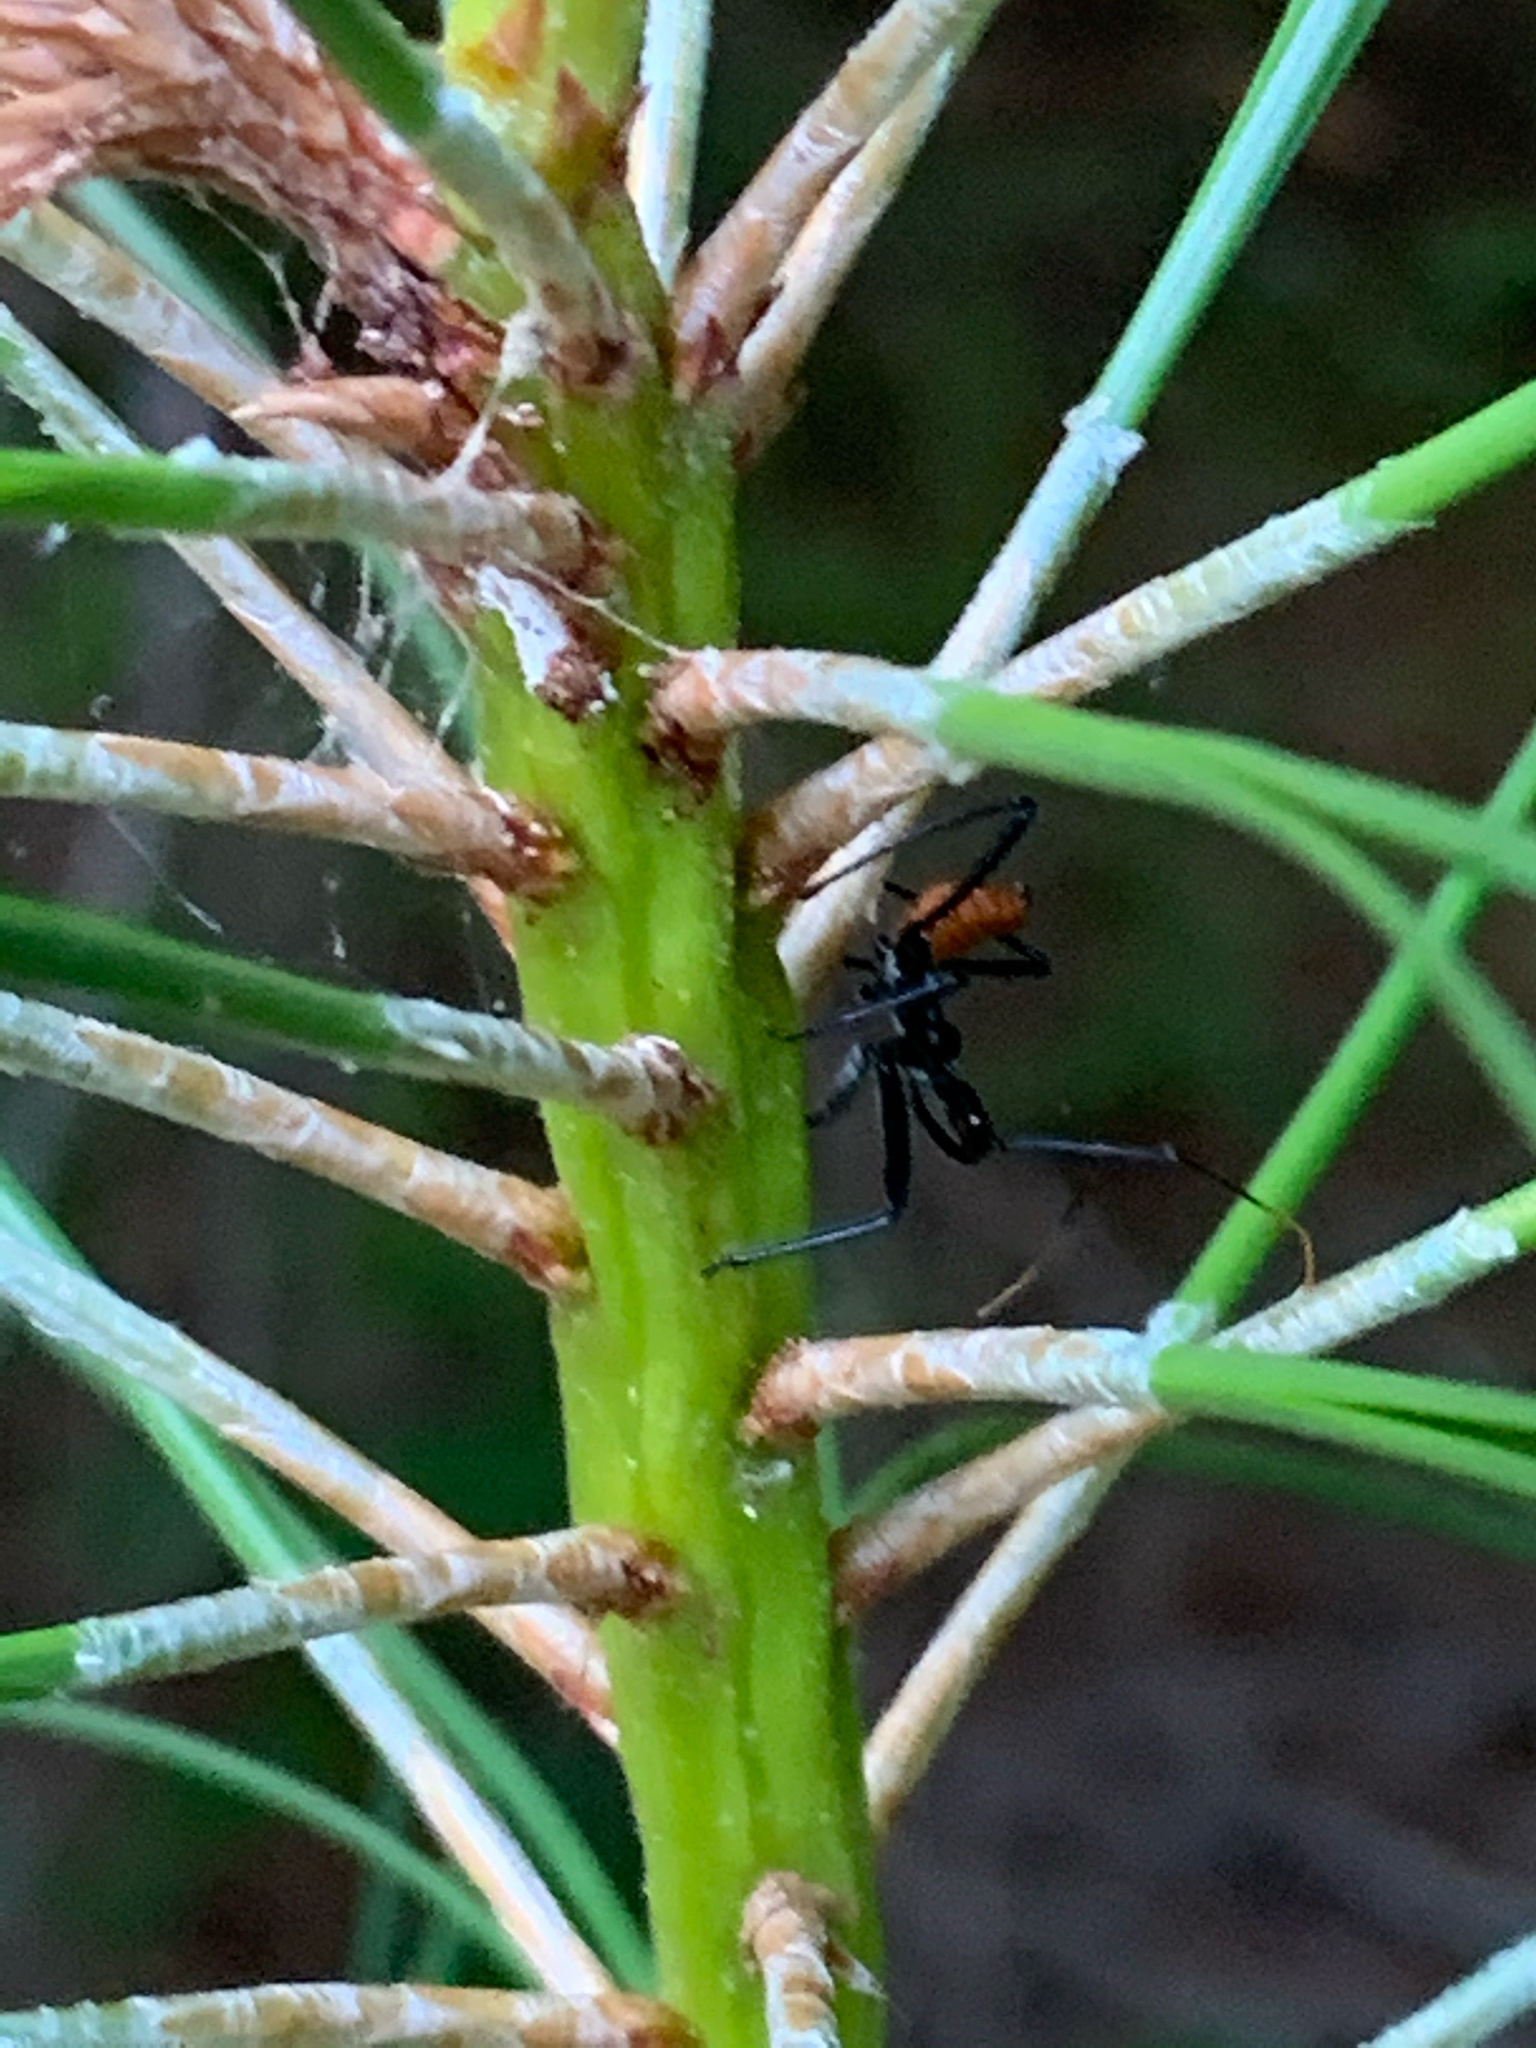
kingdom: Animalia
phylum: Arthropoda
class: Insecta
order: Hemiptera
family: Reduviidae
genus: Arilus
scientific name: Arilus cristatus
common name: North american wheel bug
